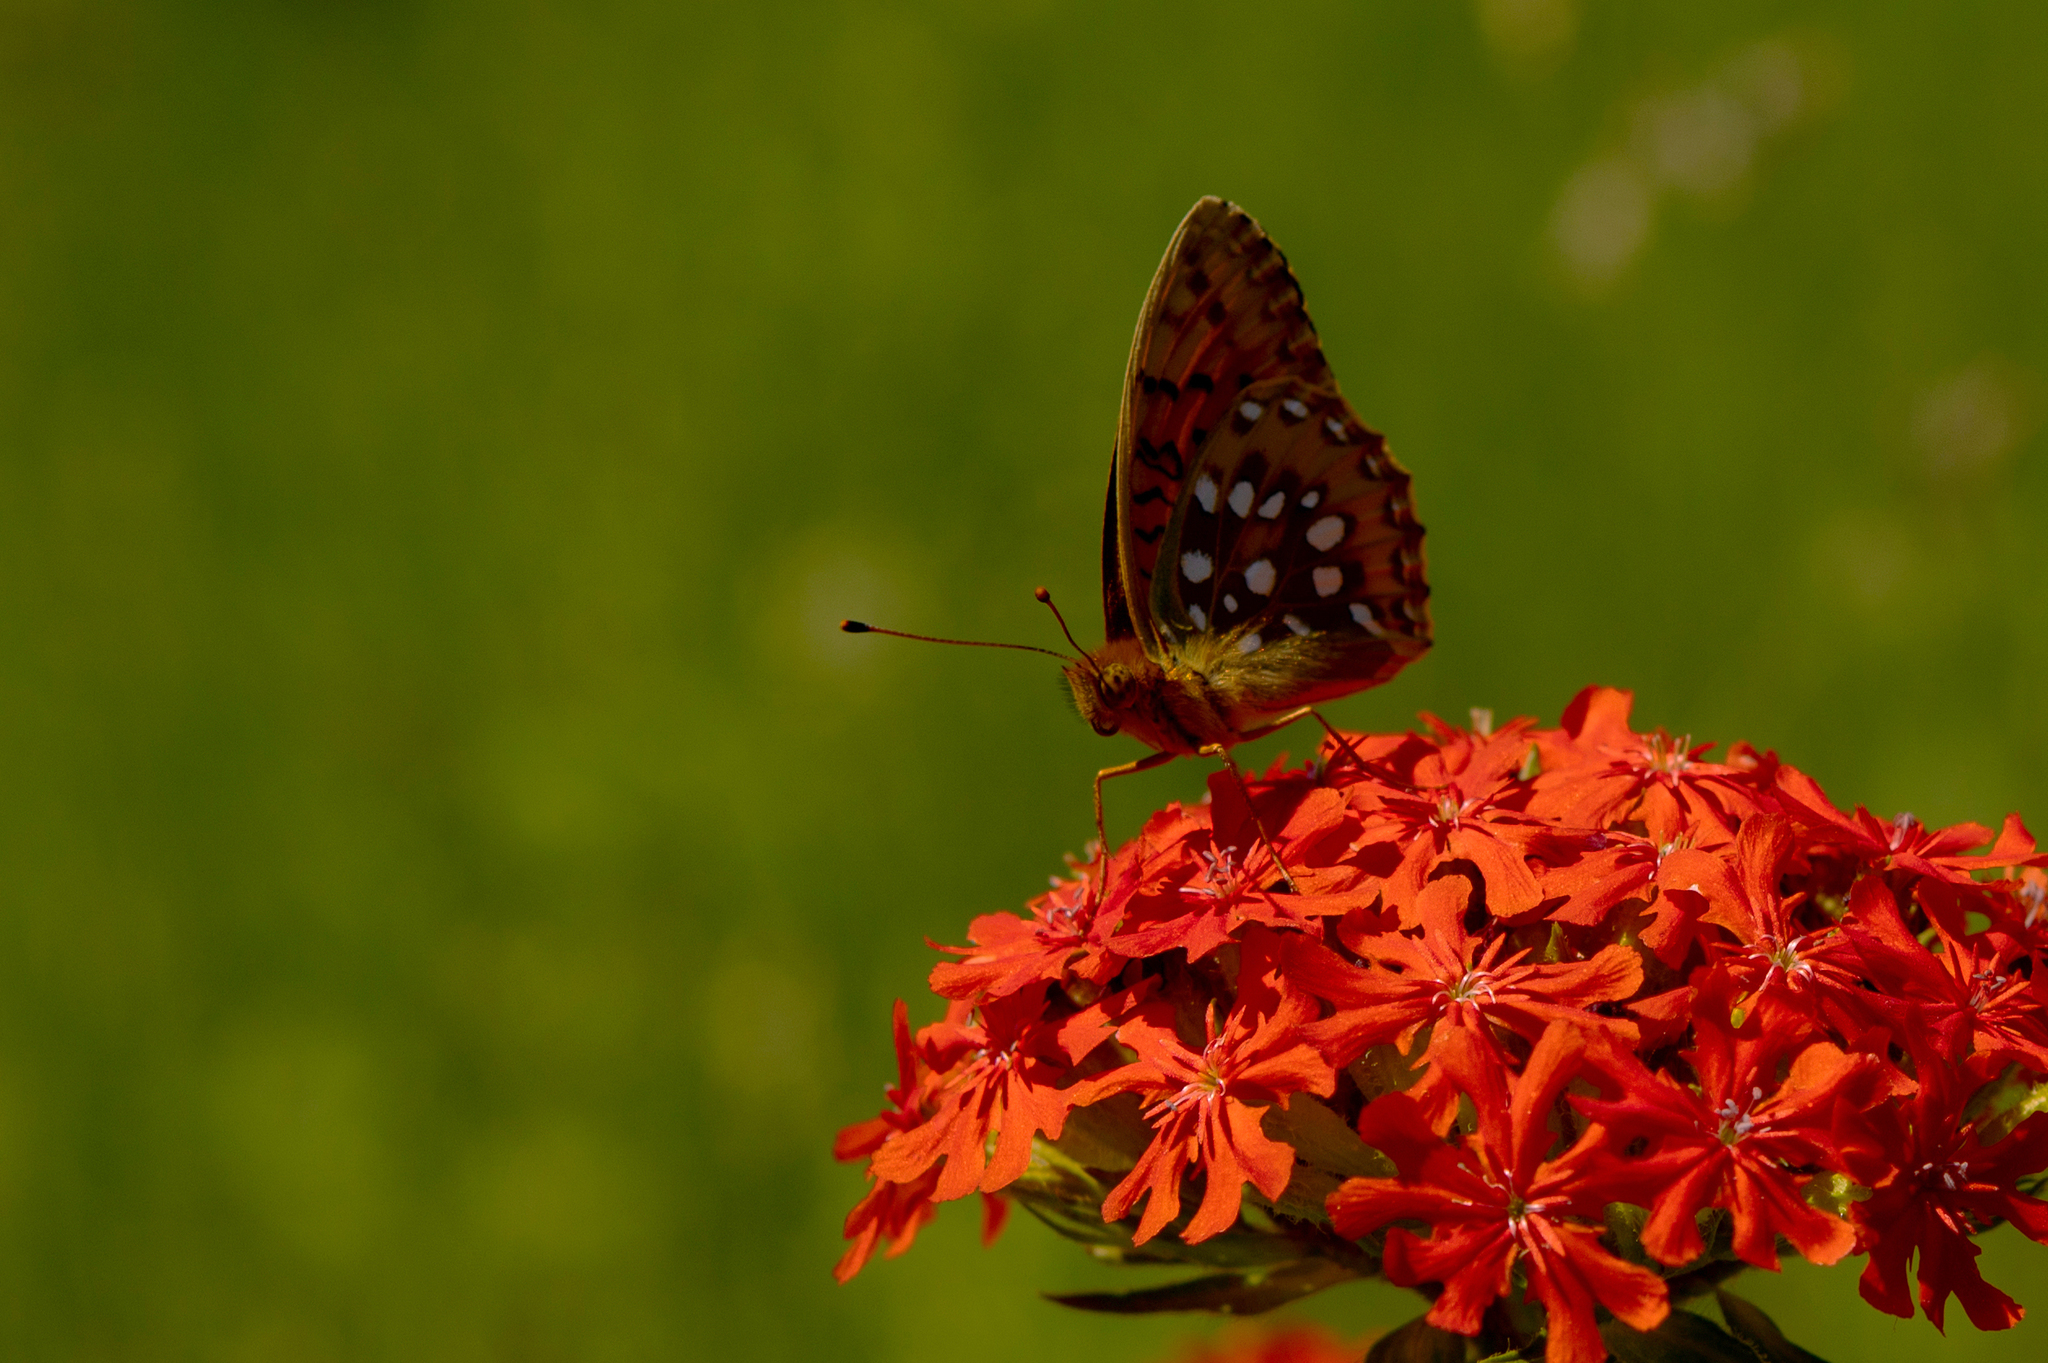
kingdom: Animalia
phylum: Arthropoda
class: Insecta
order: Lepidoptera
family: Nymphalidae
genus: Speyeria
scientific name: Speyeria aglaja
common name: Dark green fritillary
